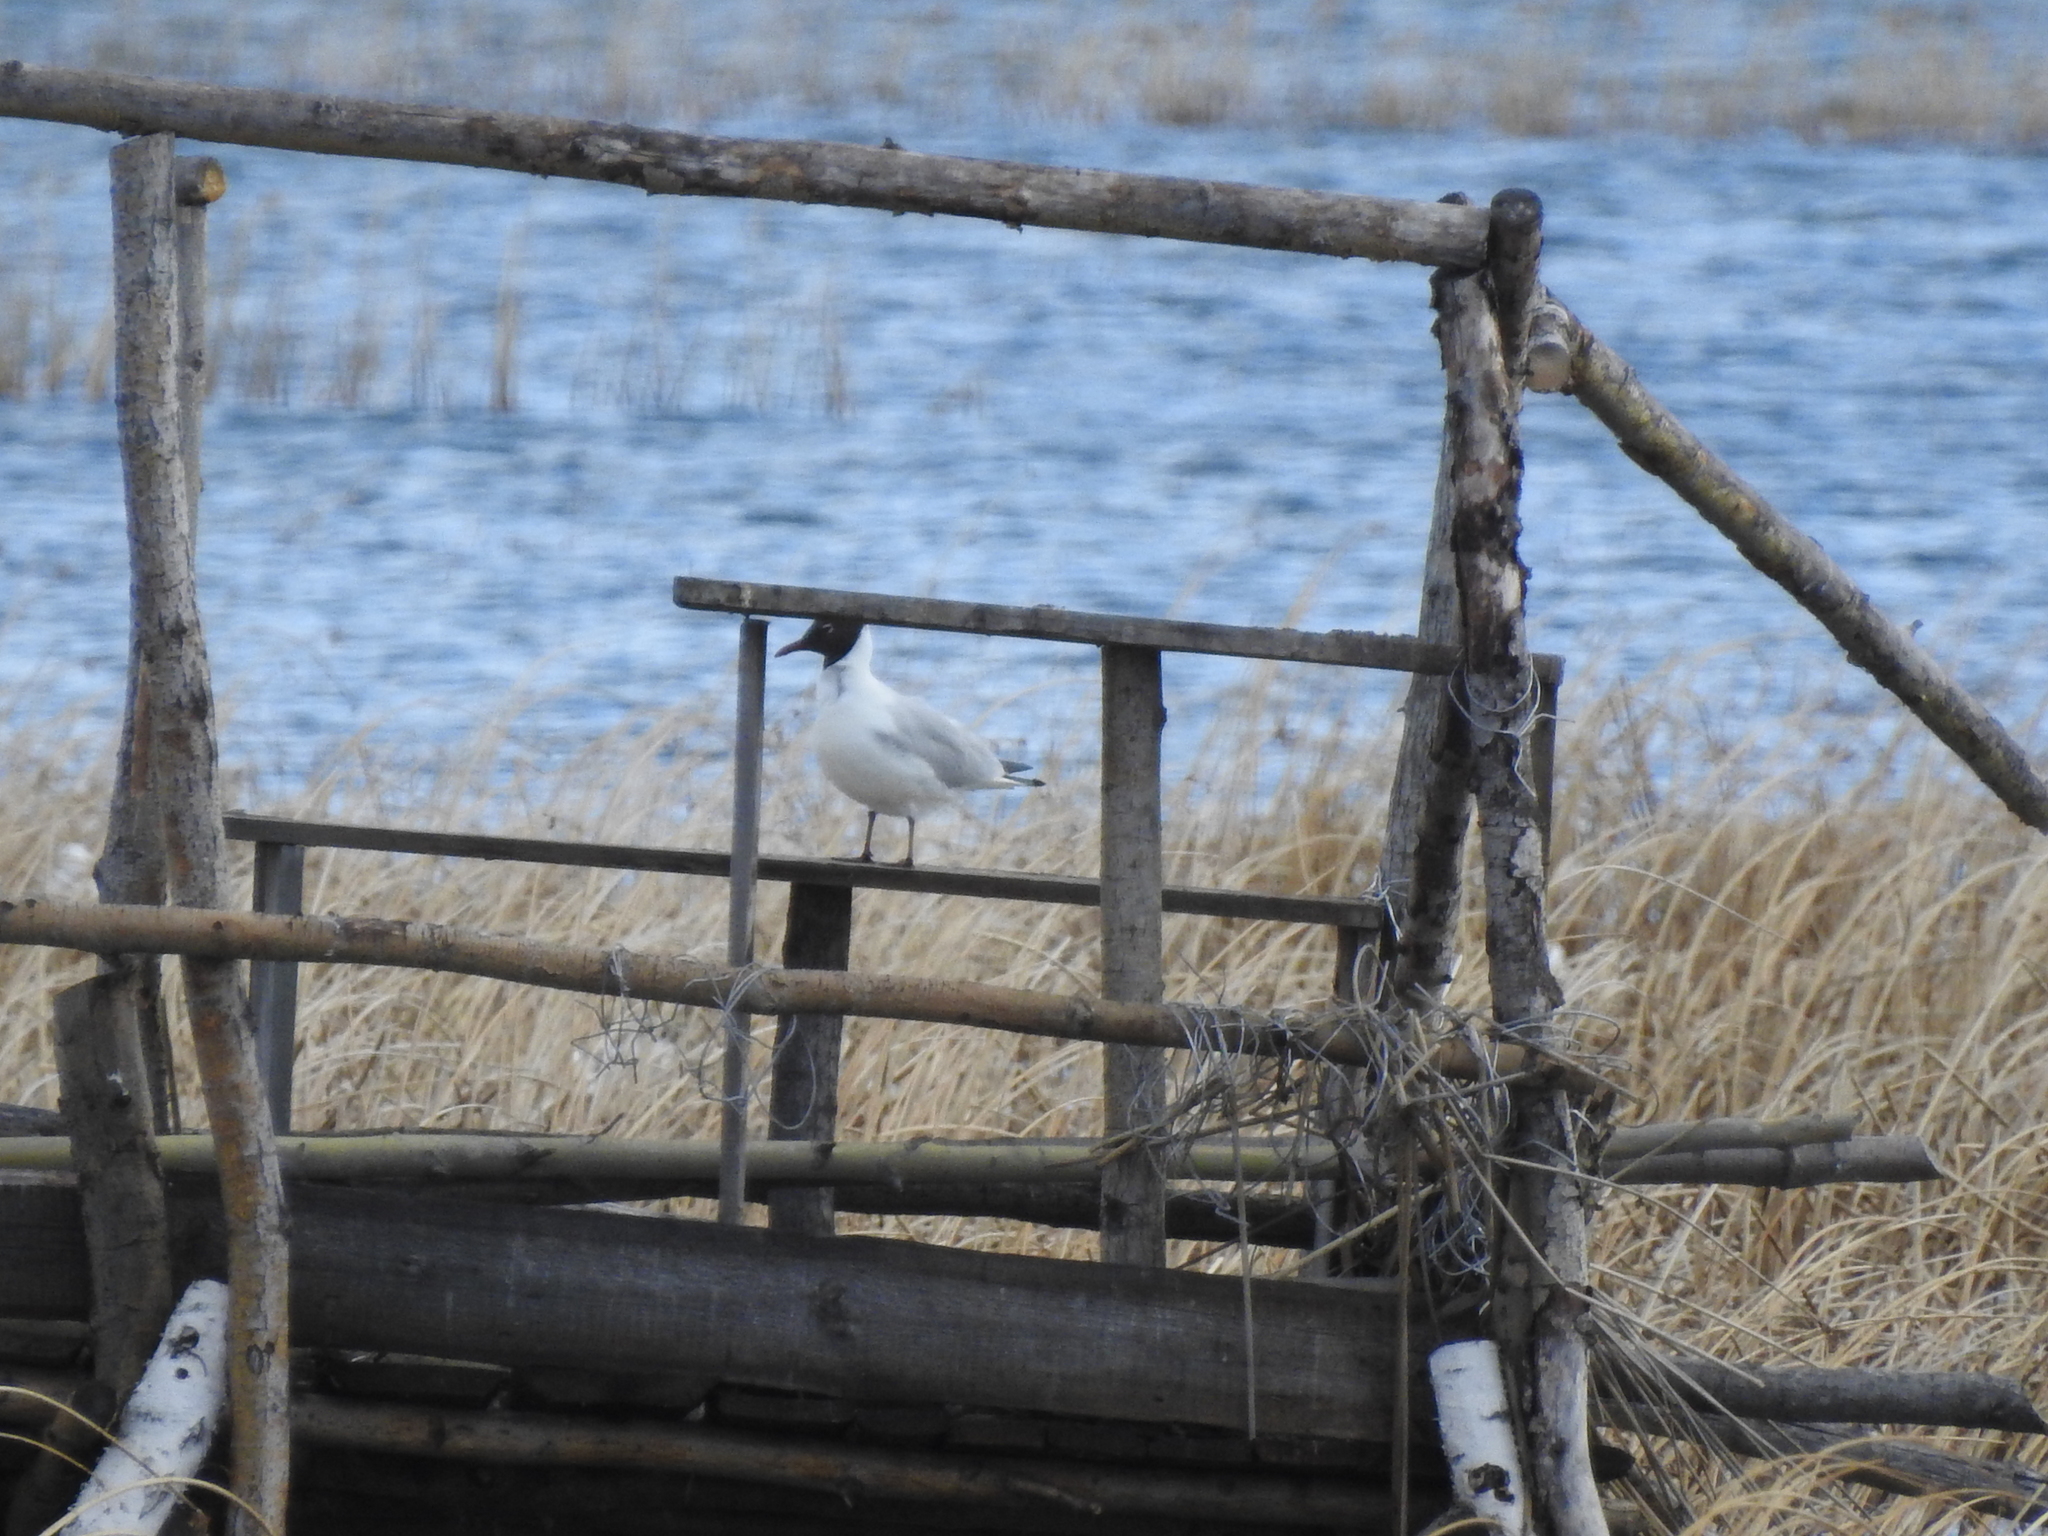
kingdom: Animalia
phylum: Chordata
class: Aves
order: Charadriiformes
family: Laridae
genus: Chroicocephalus
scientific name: Chroicocephalus ridibundus
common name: Black-headed gull
